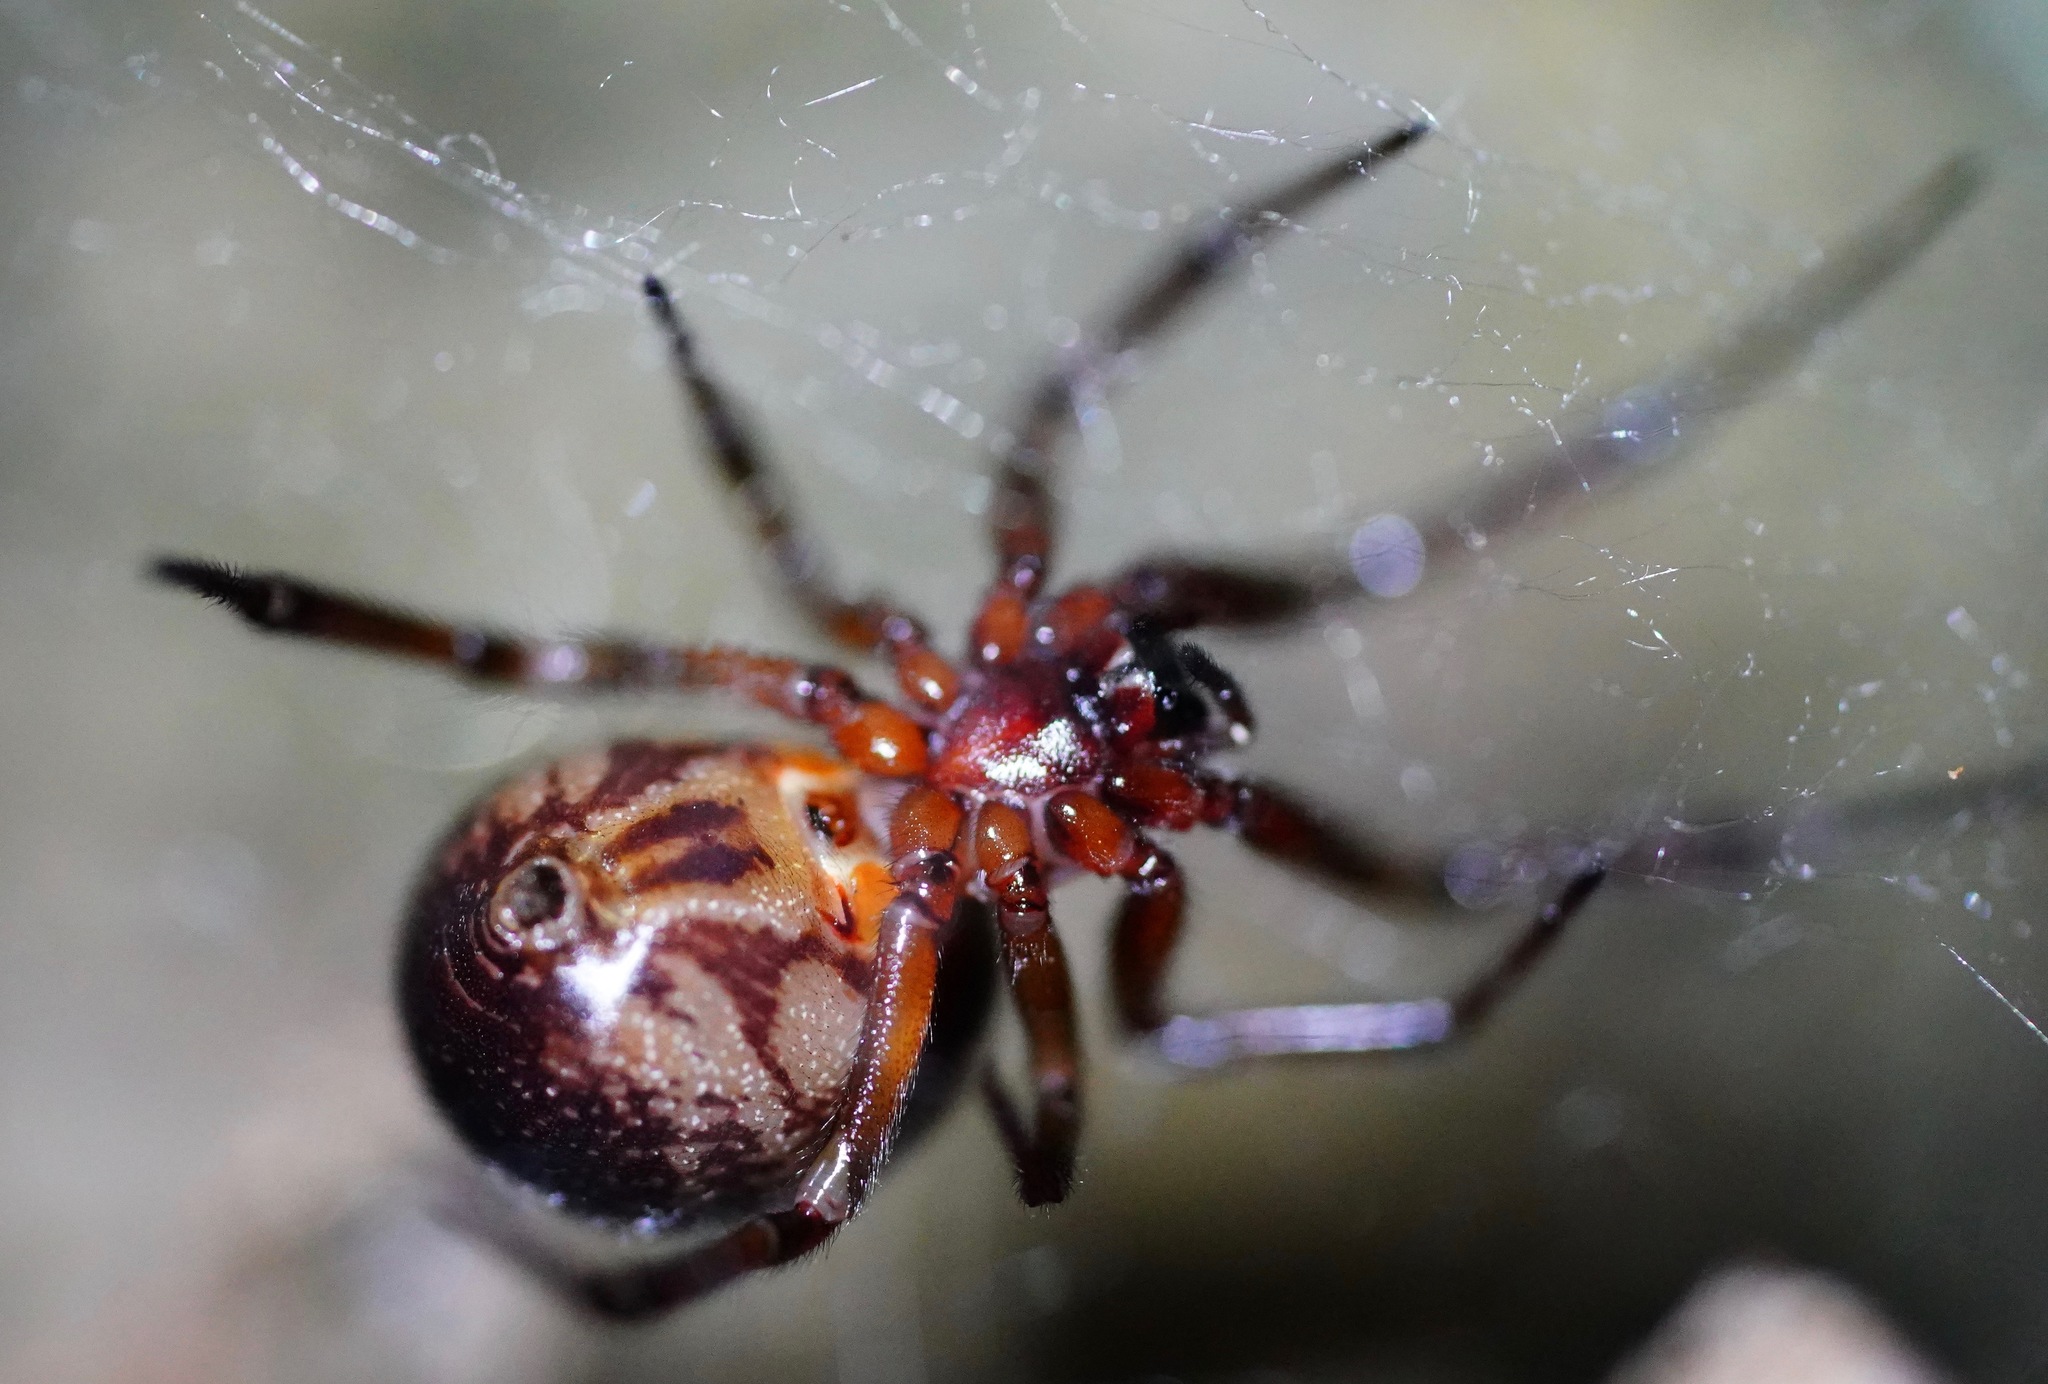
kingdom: Animalia
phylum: Arthropoda
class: Arachnida
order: Araneae
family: Theridiidae
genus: Steatoda
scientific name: Steatoda nobilis
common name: Cobweb weaver
